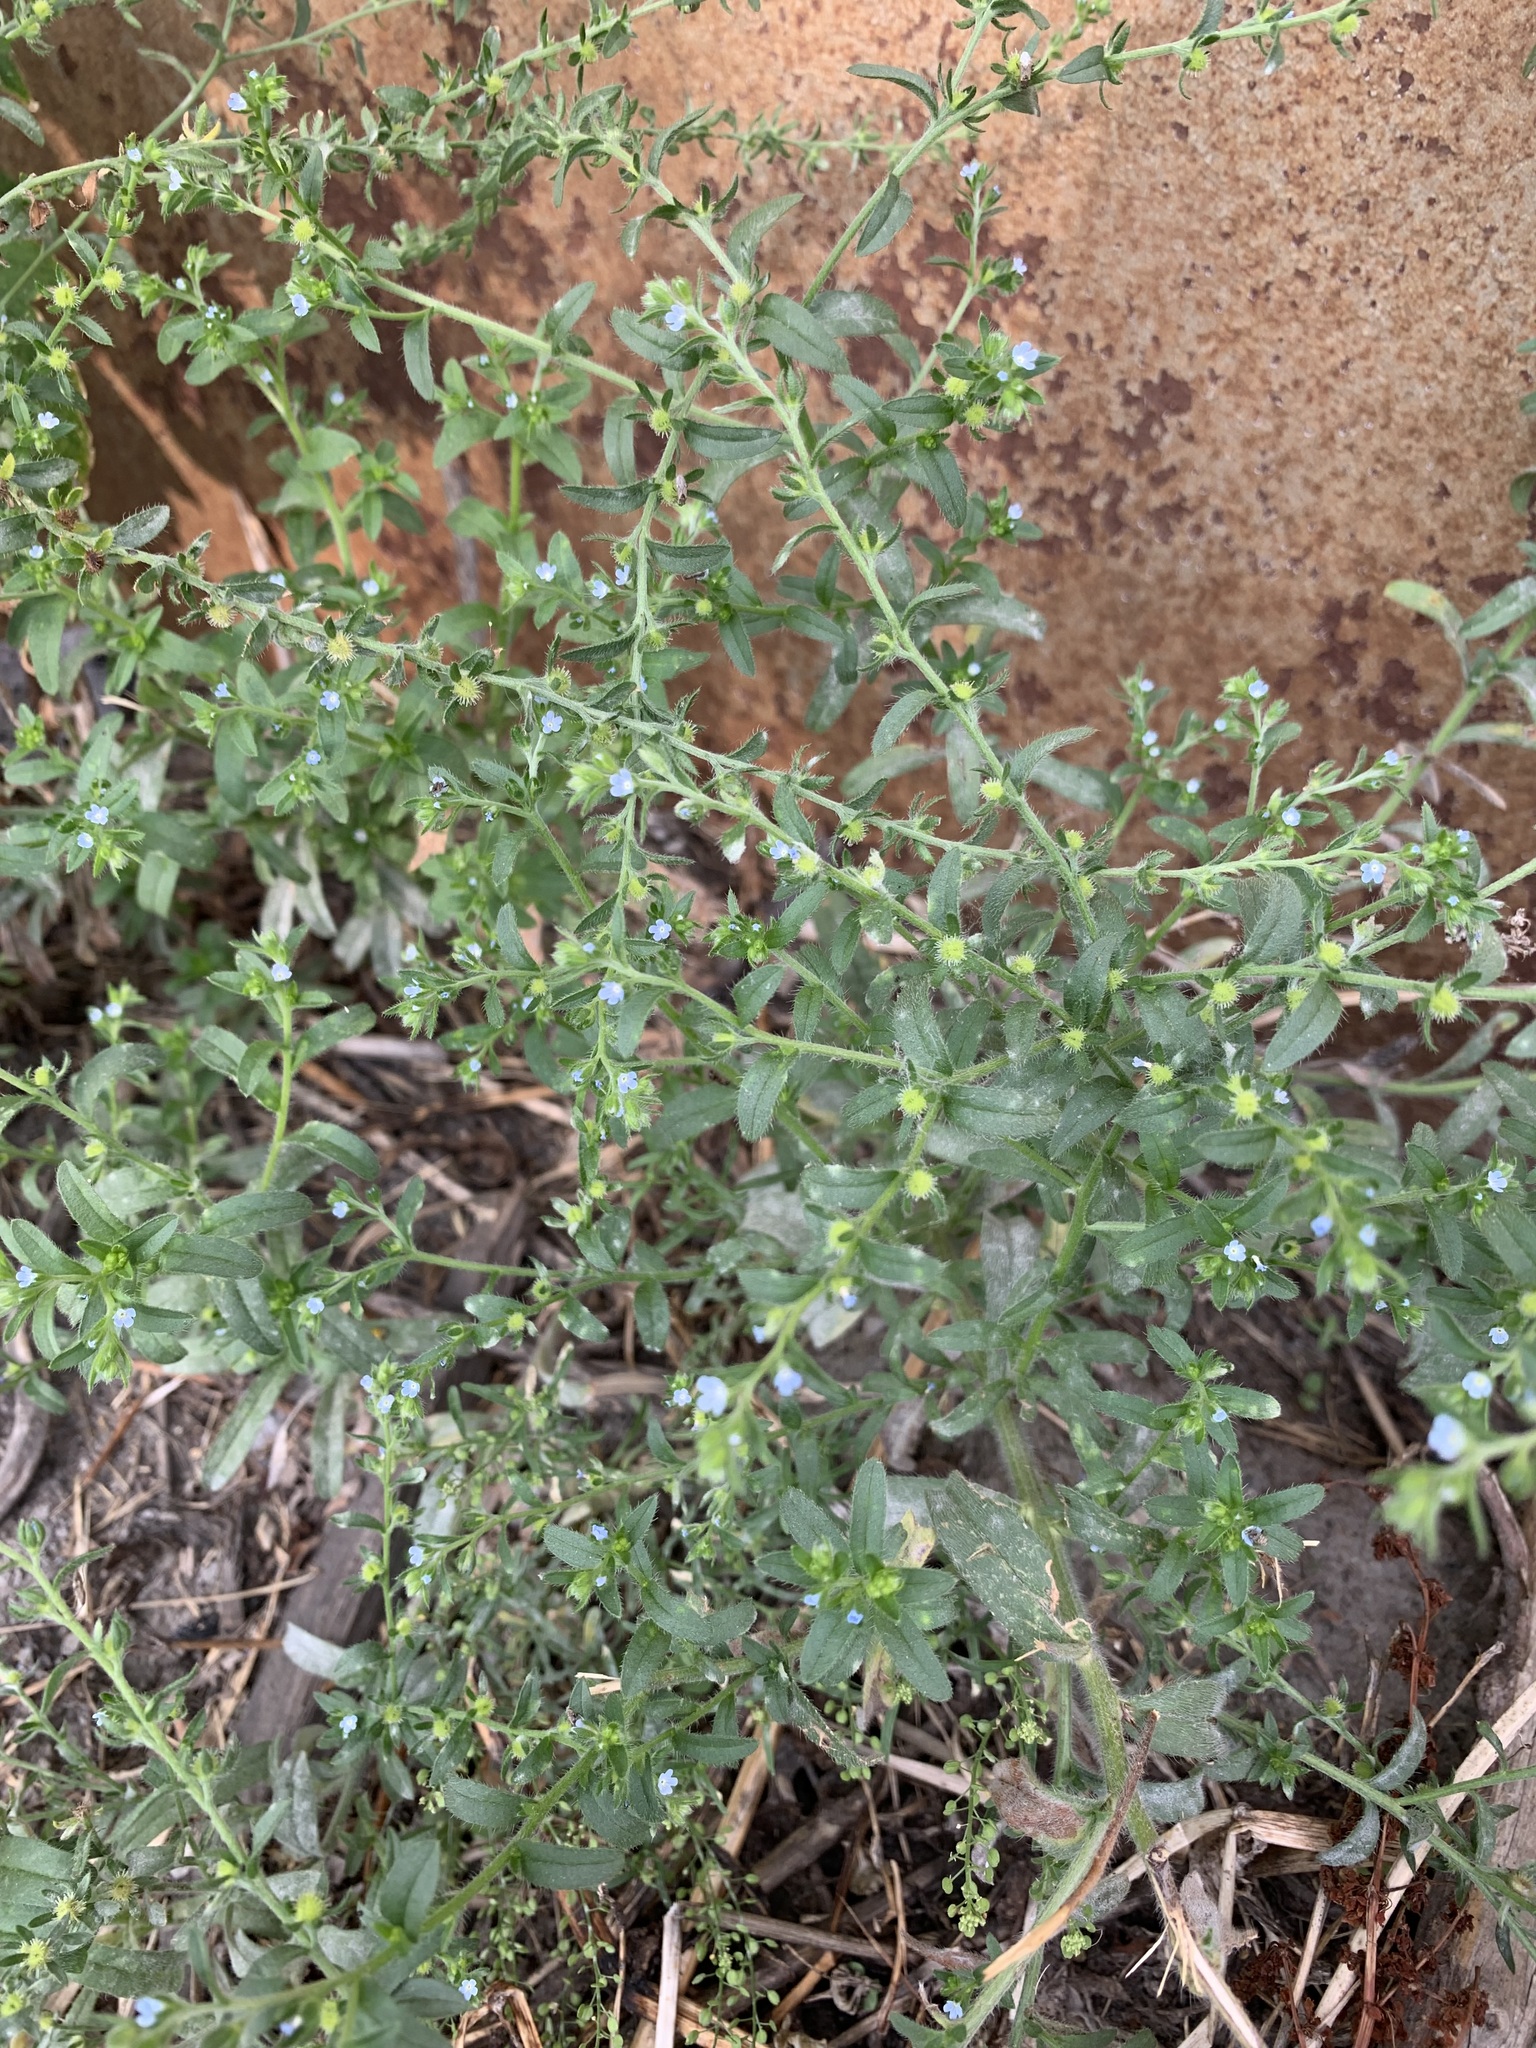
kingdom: Plantae
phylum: Tracheophyta
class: Magnoliopsida
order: Boraginales
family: Boraginaceae
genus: Lappula
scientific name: Lappula squarrosa
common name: European stickseed
